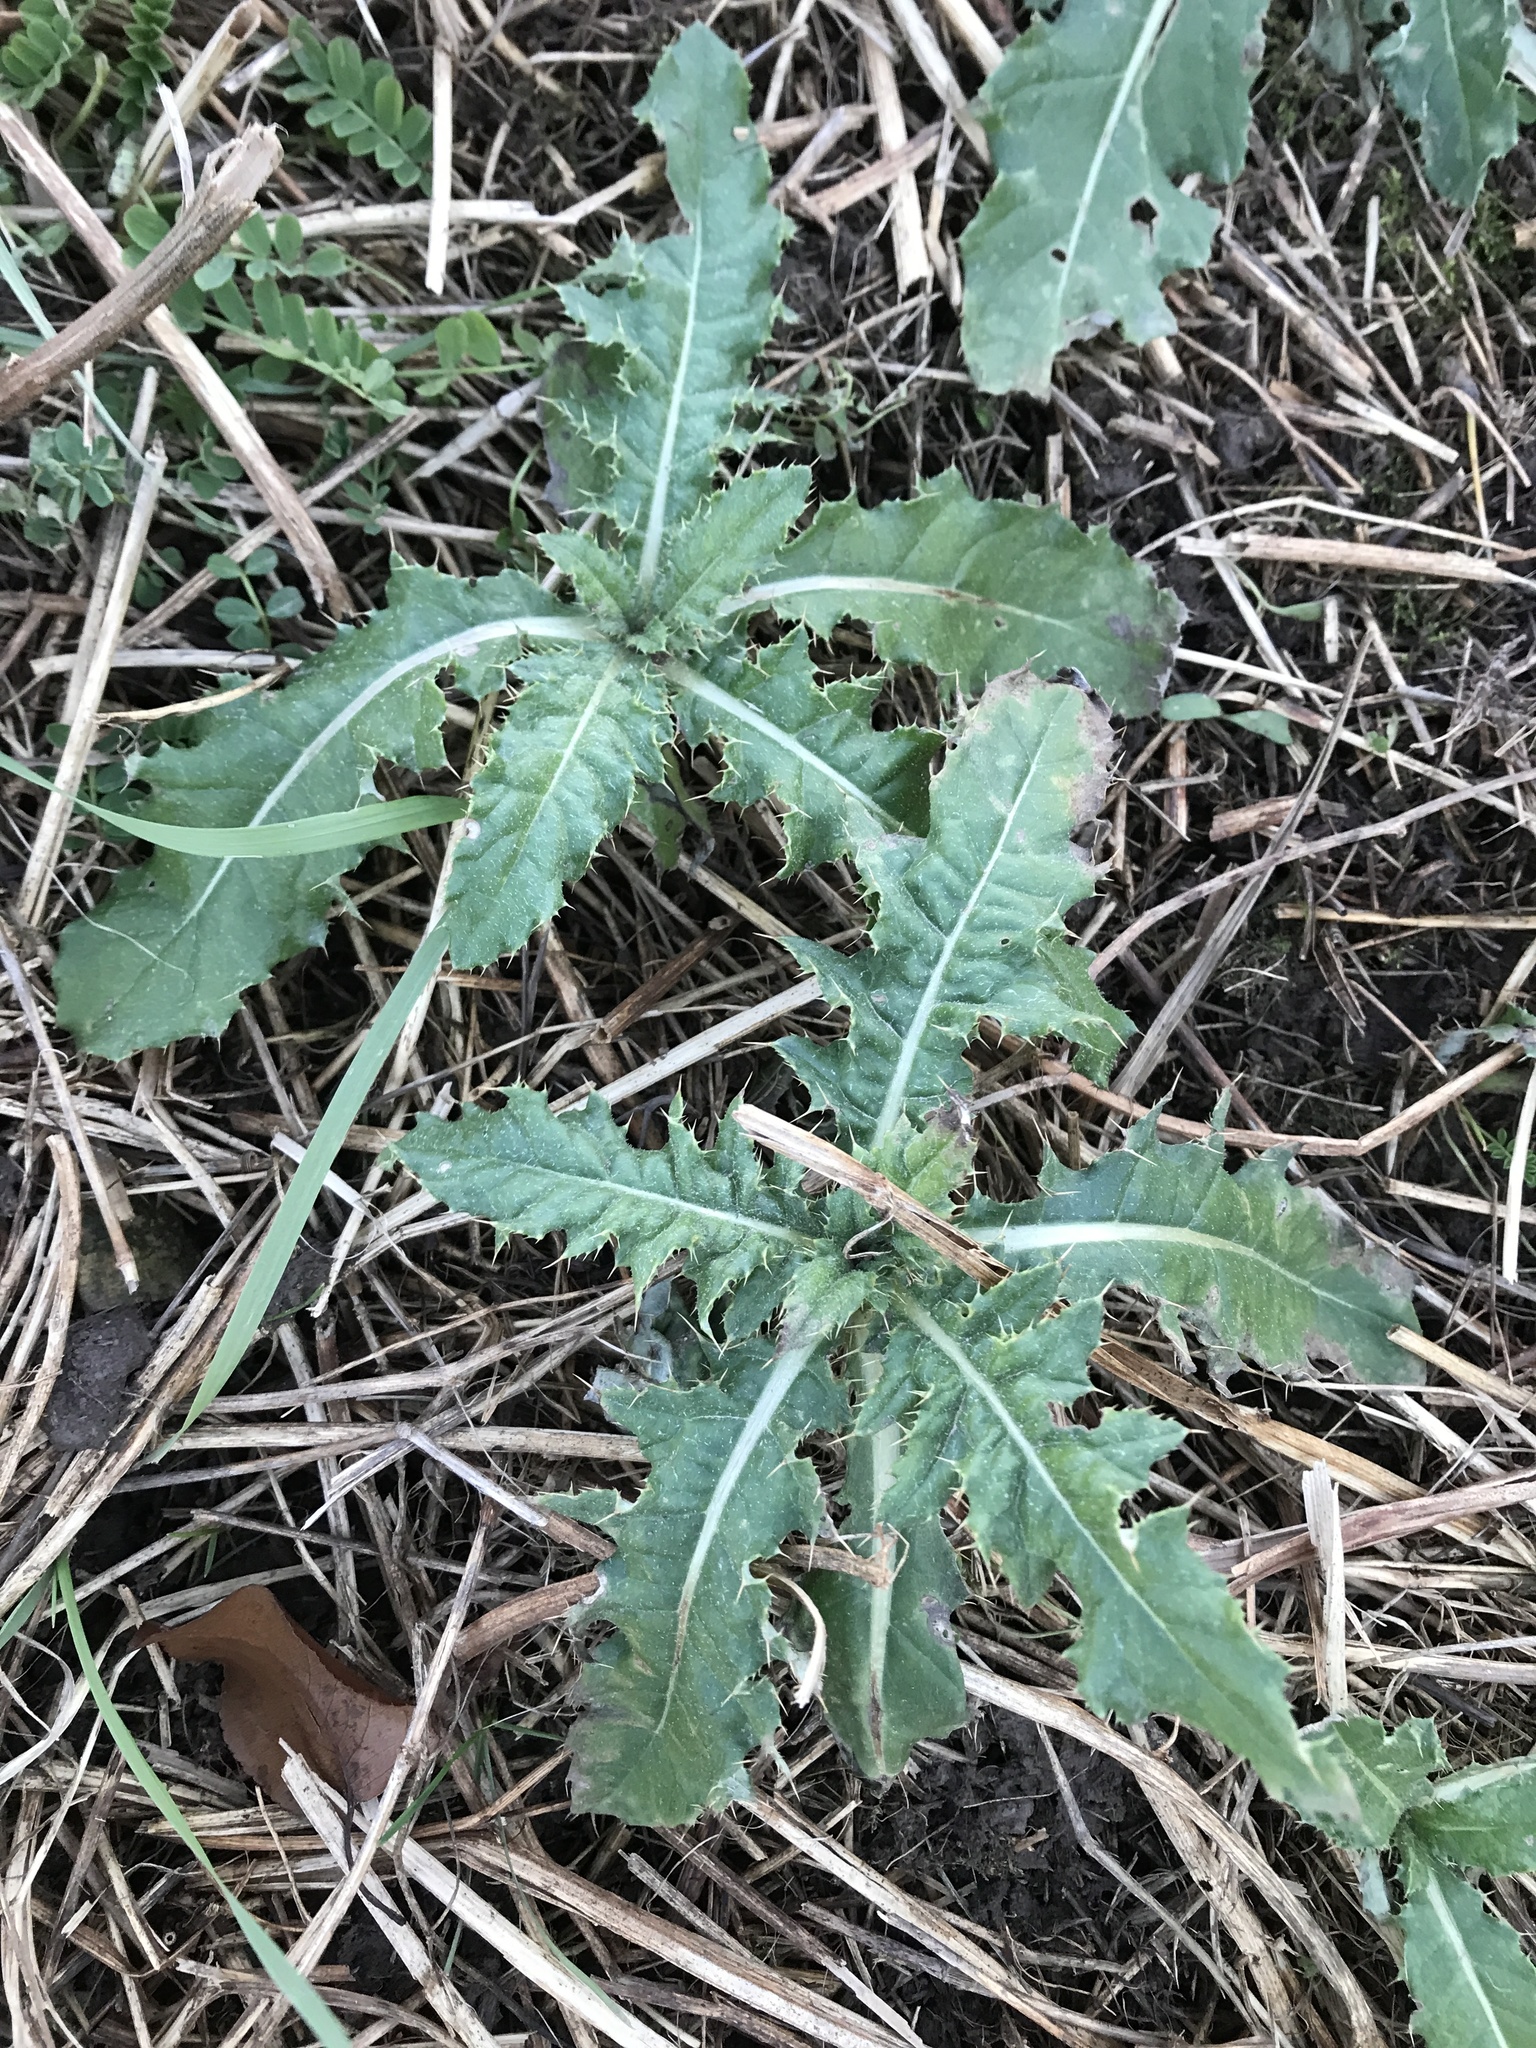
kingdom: Plantae
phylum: Tracheophyta
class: Magnoliopsida
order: Asterales
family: Asteraceae
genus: Cirsium
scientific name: Cirsium arvense
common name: Creeping thistle
